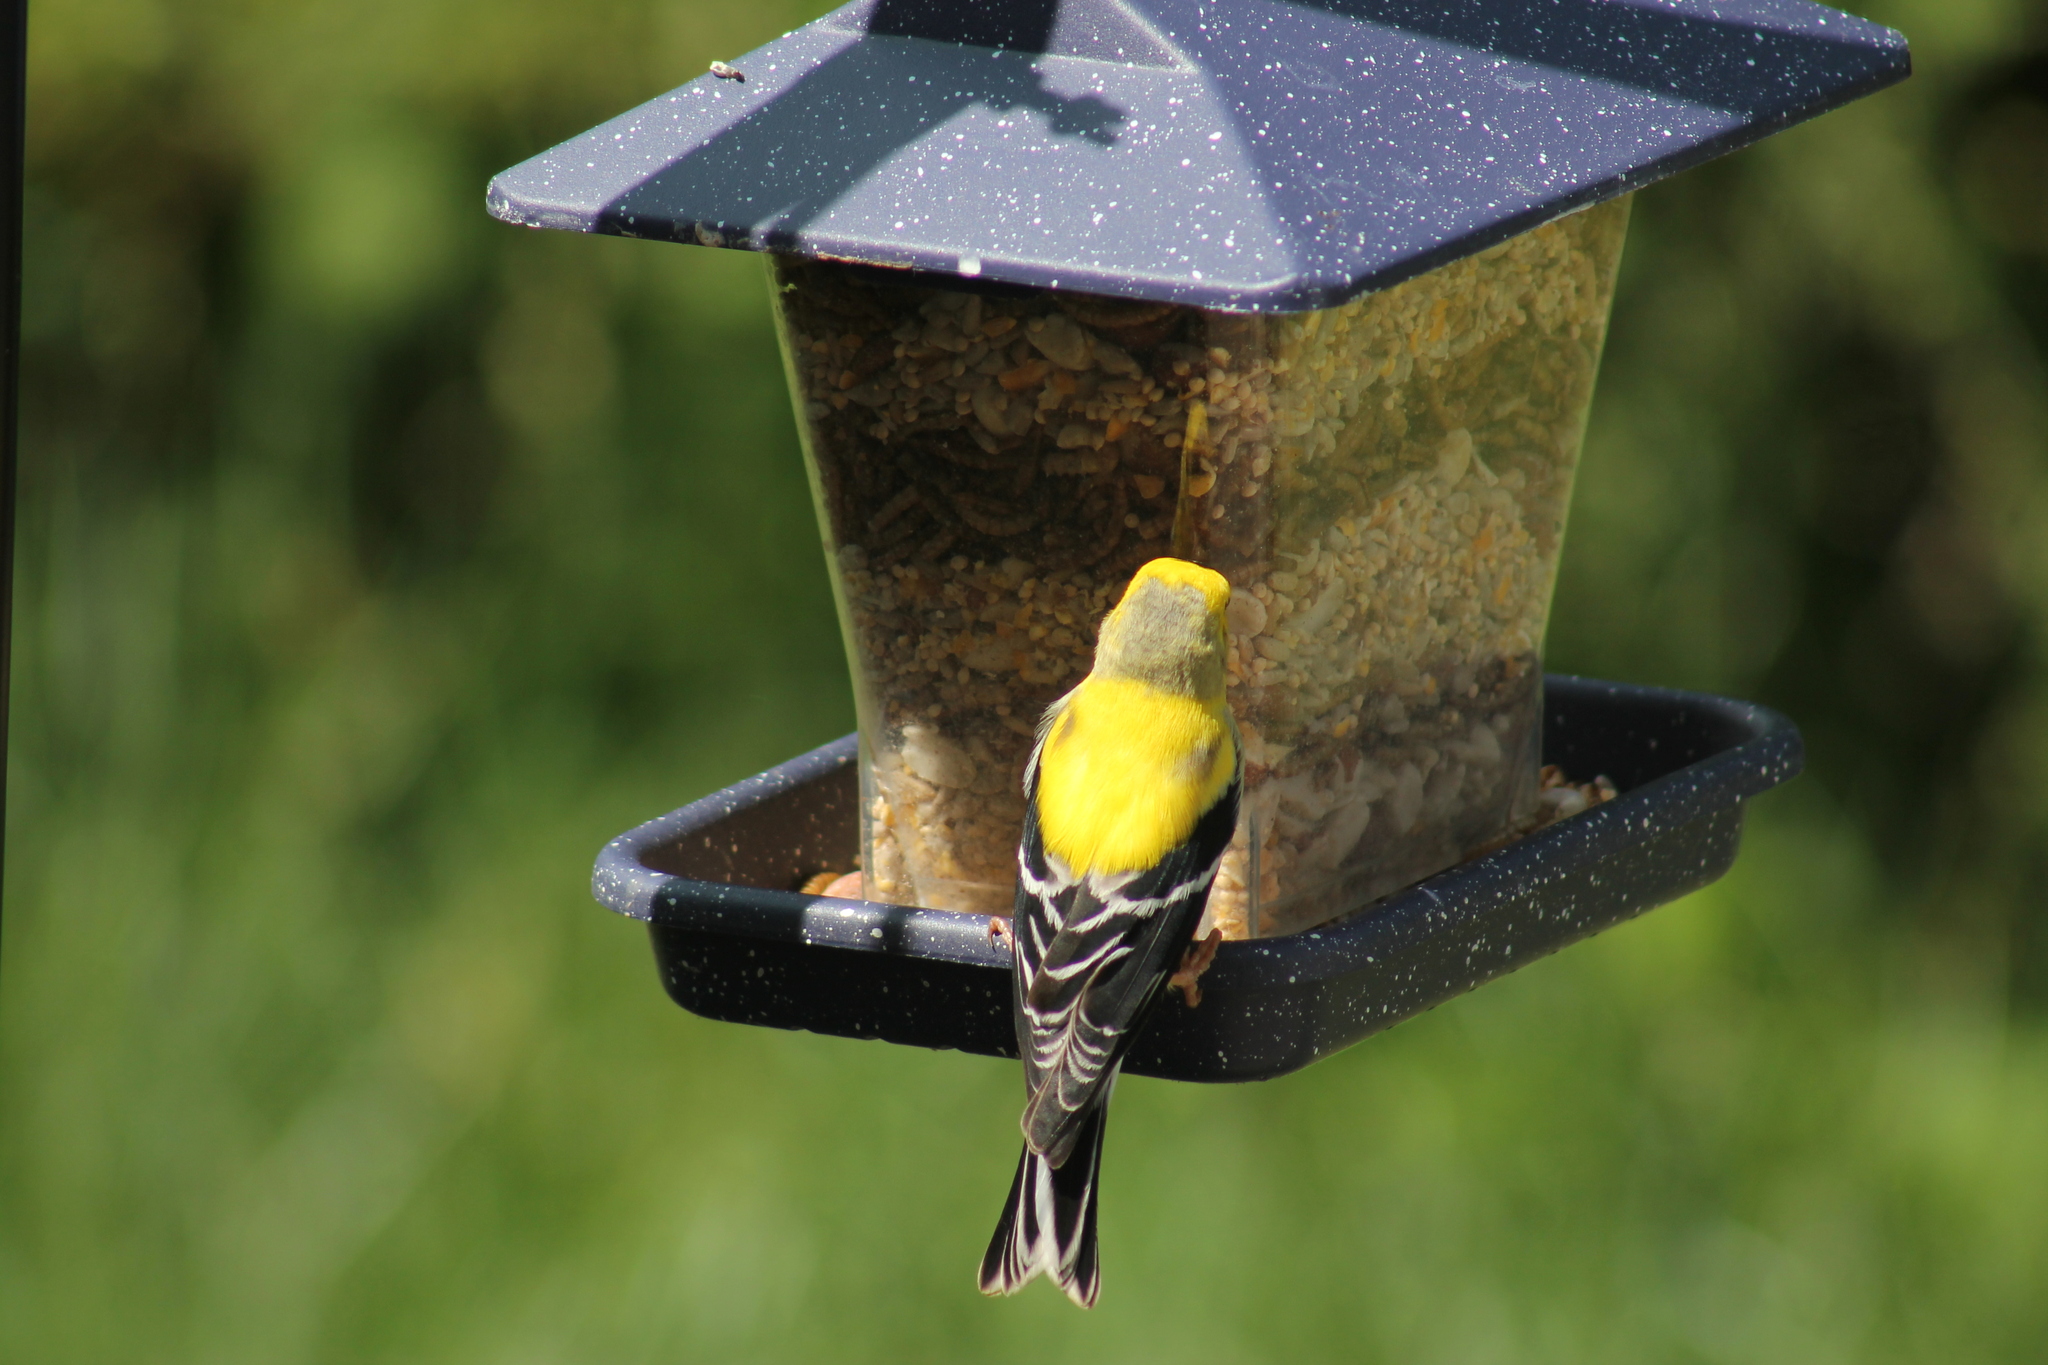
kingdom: Animalia
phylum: Chordata
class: Aves
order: Passeriformes
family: Fringillidae
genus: Spinus
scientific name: Spinus tristis
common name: American goldfinch
